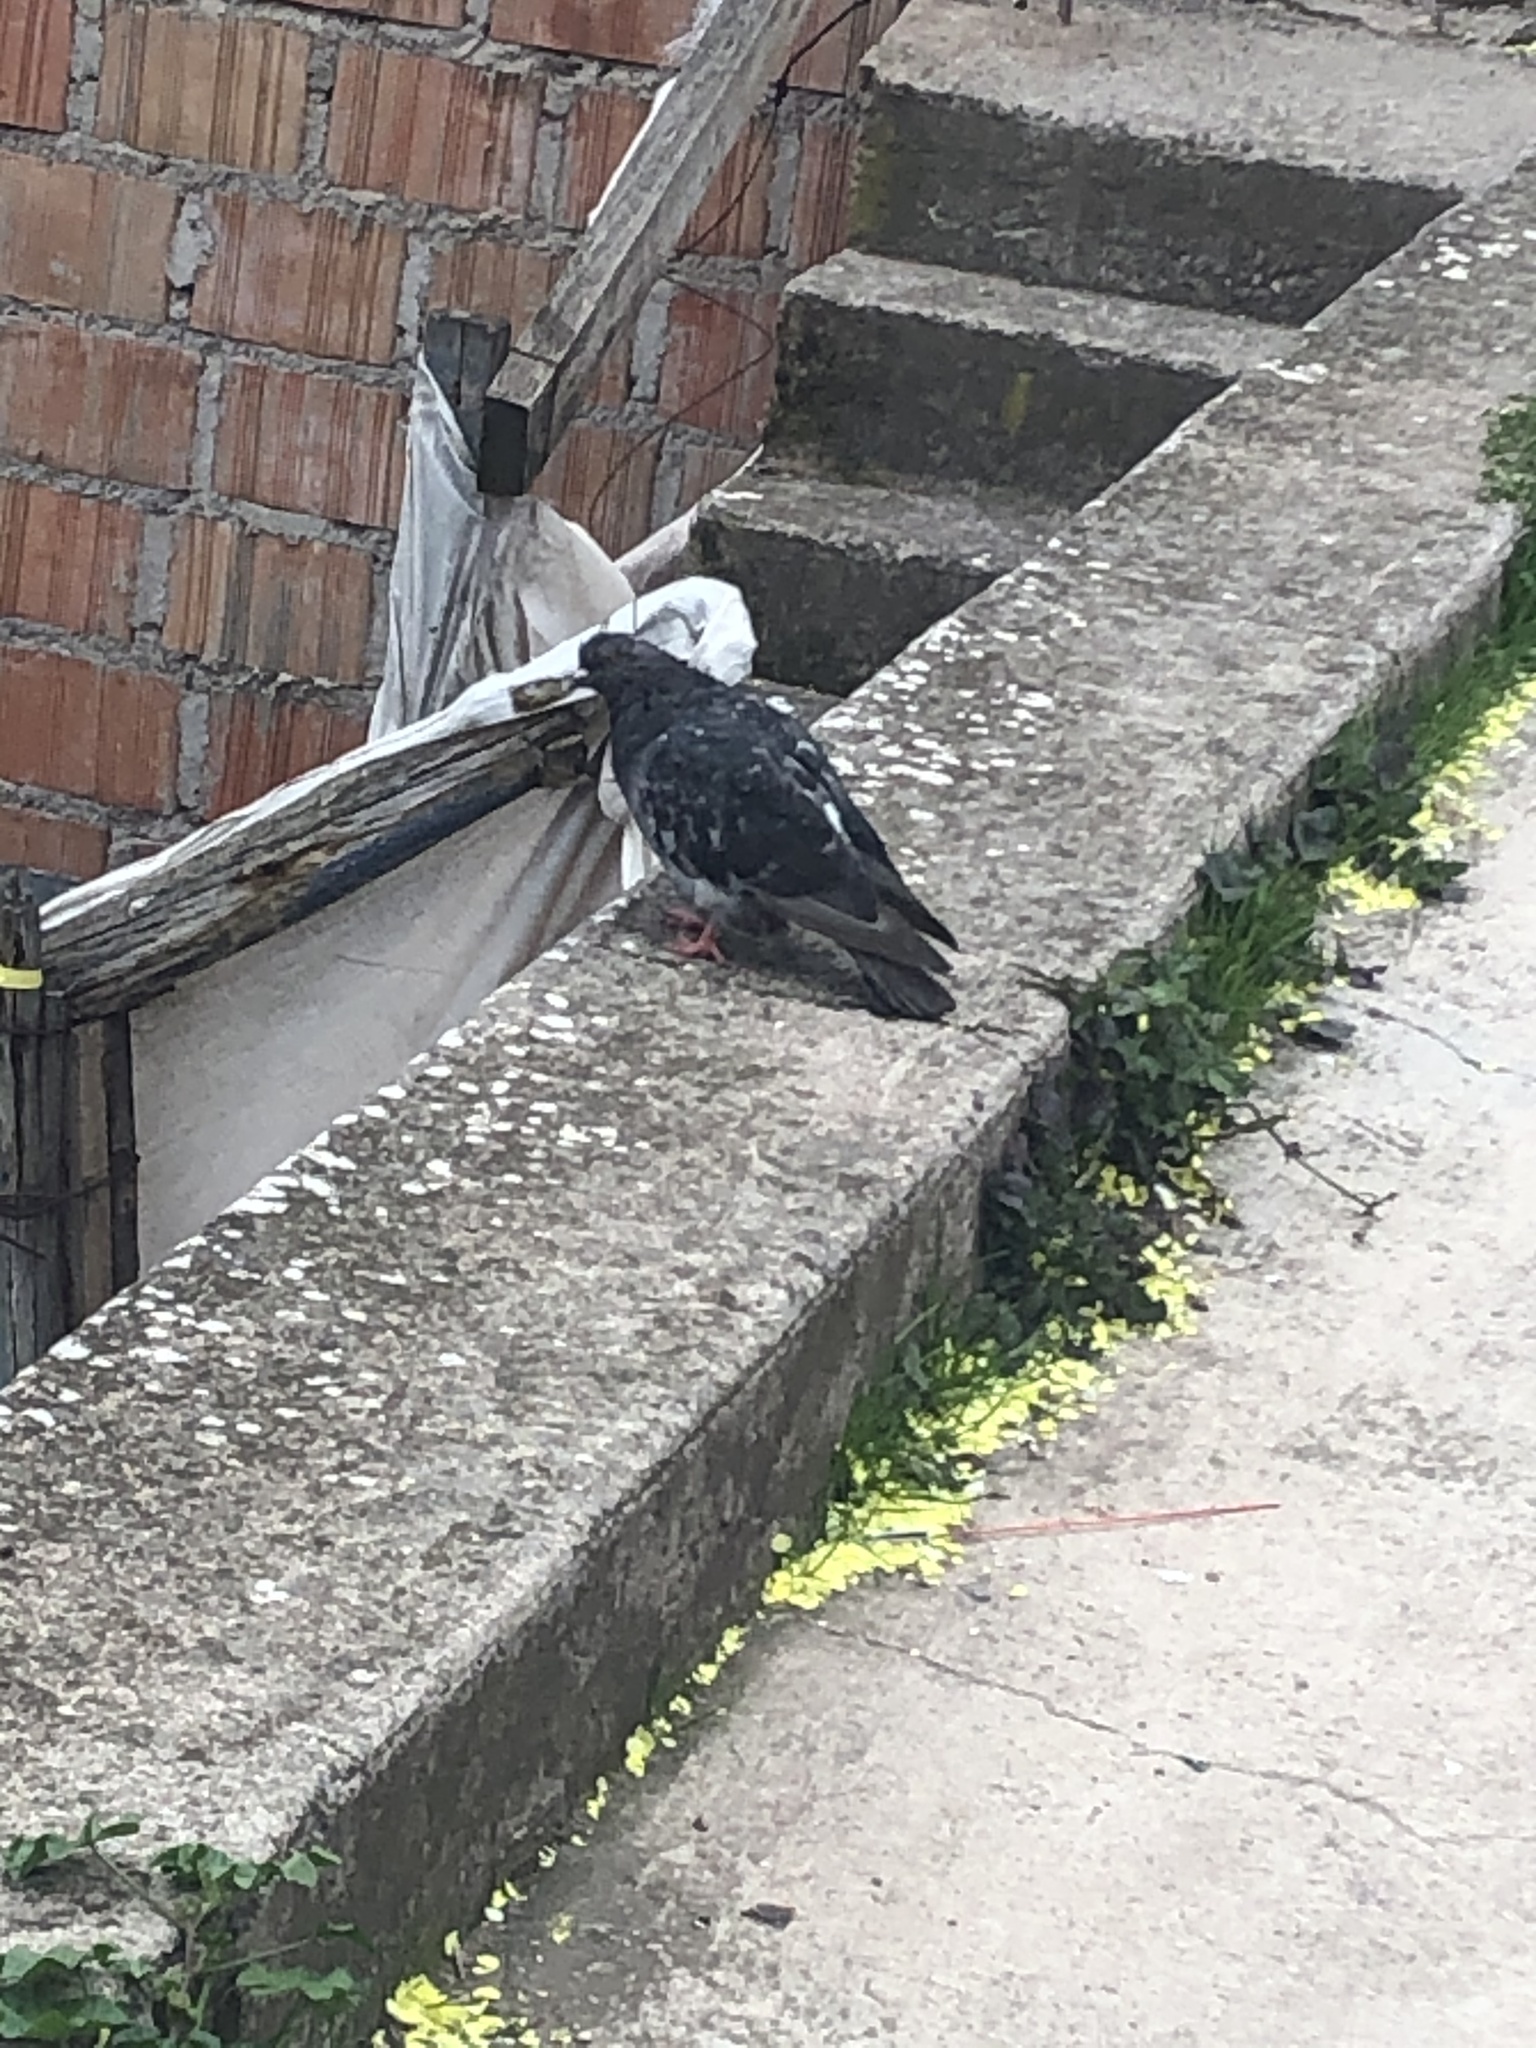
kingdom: Animalia
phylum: Chordata
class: Aves
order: Columbiformes
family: Columbidae
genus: Columba
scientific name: Columba livia
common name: Rock pigeon
